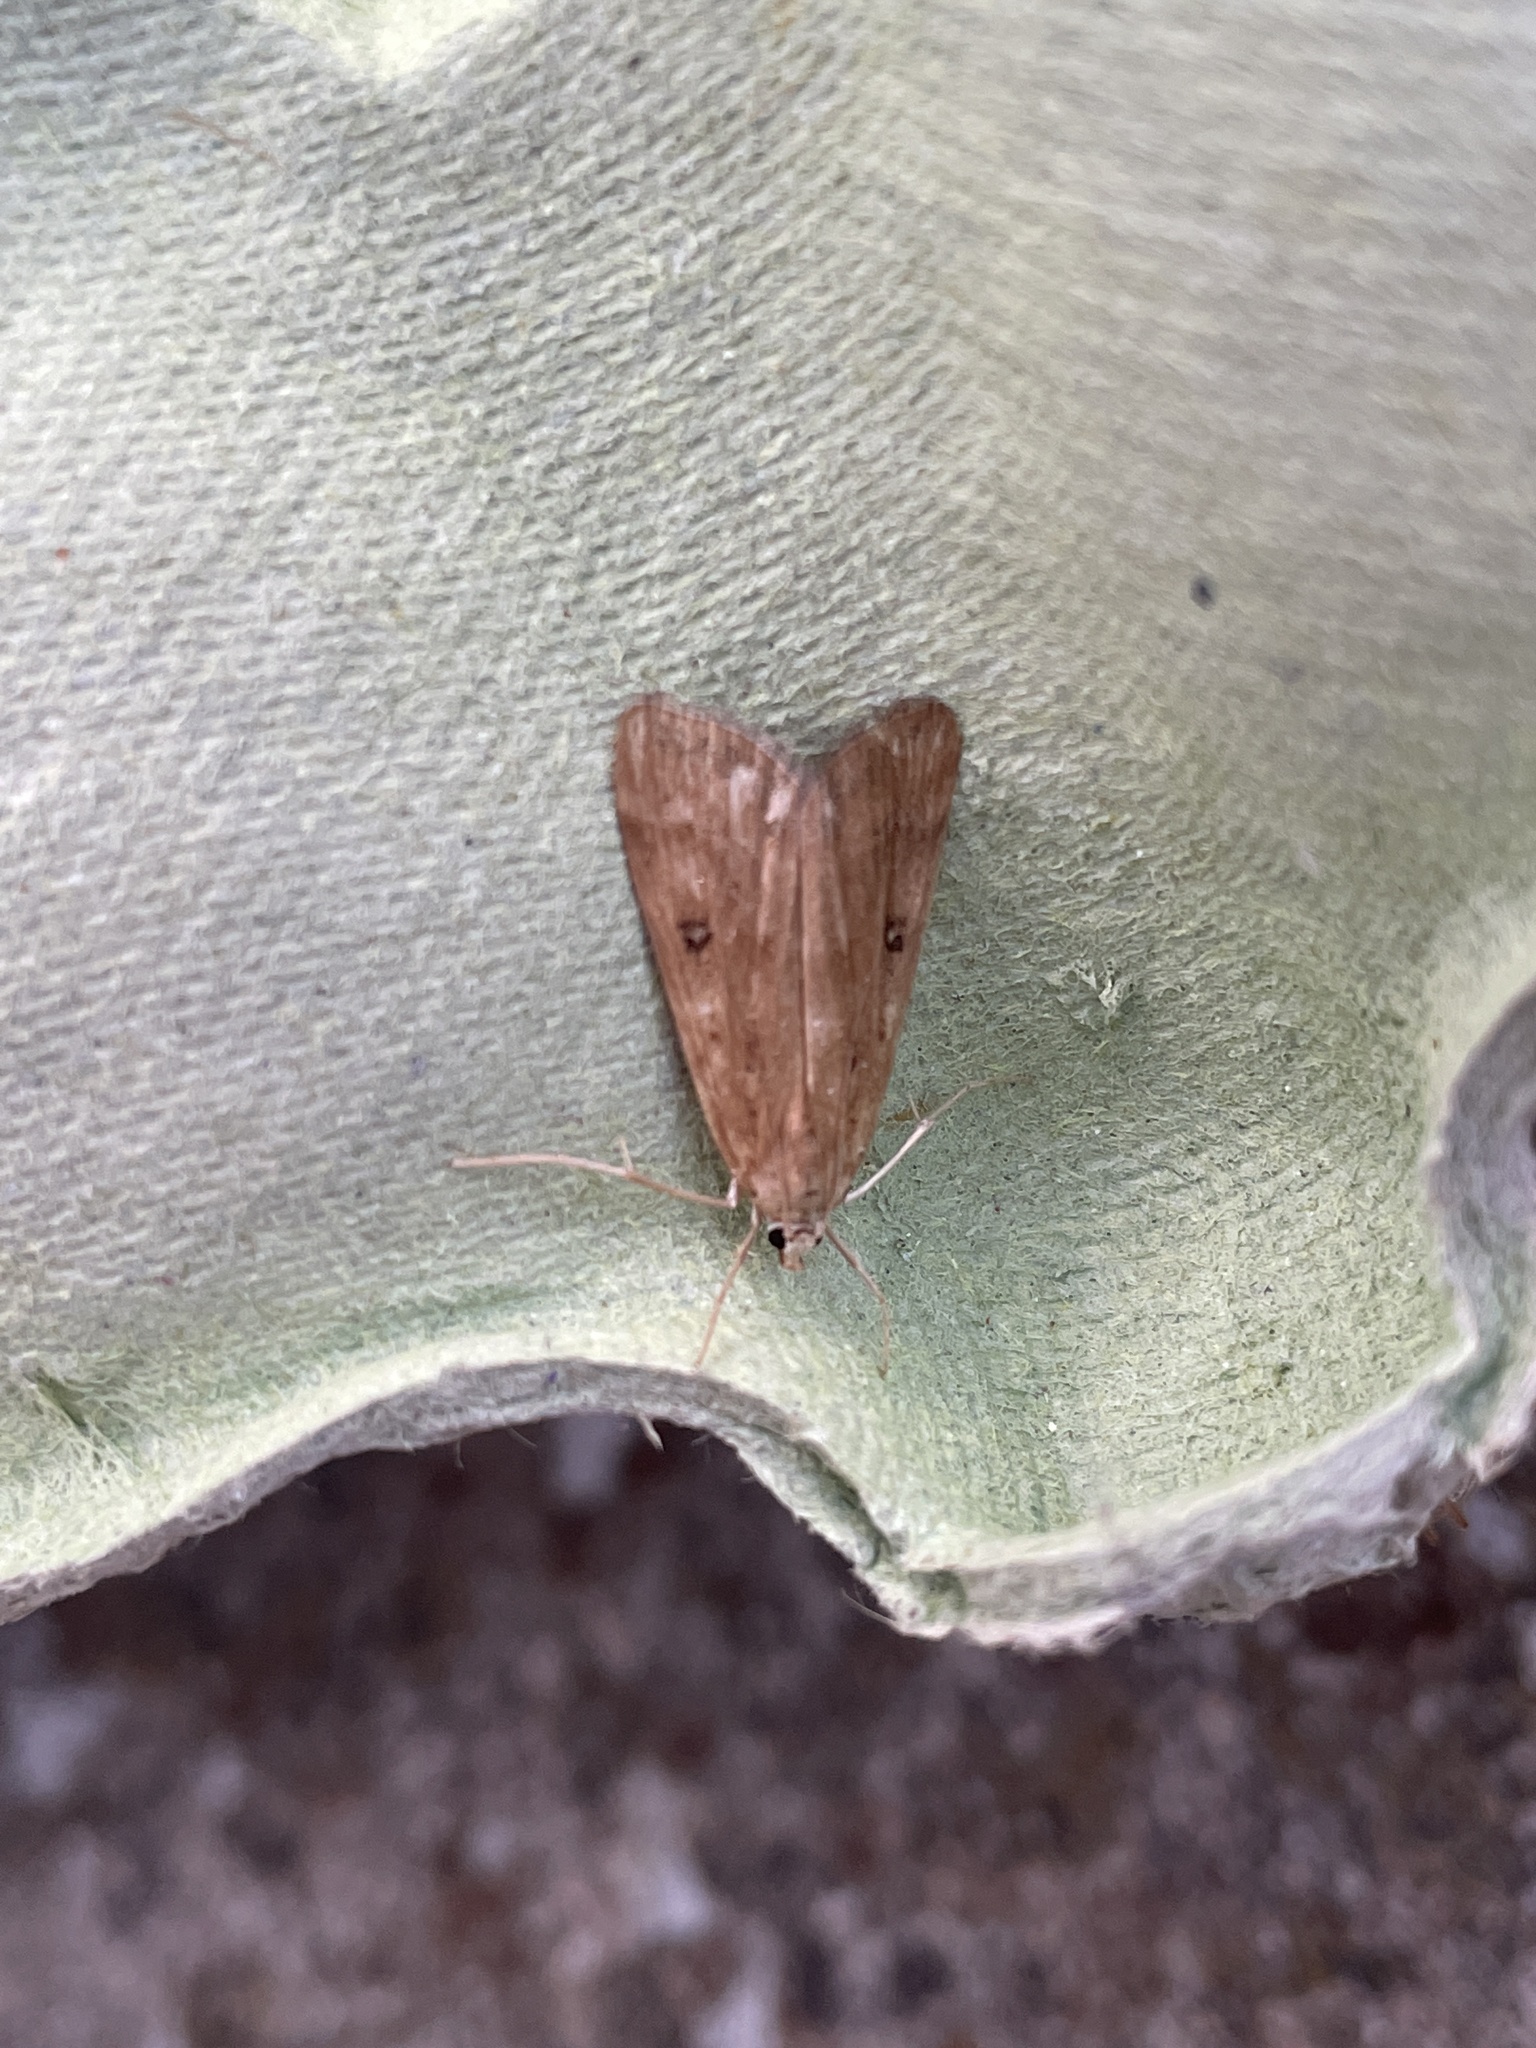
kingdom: Animalia
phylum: Arthropoda
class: Insecta
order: Lepidoptera
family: Crambidae
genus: Parapoynx
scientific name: Parapoynx stratiotata
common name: Ringed china-mark
